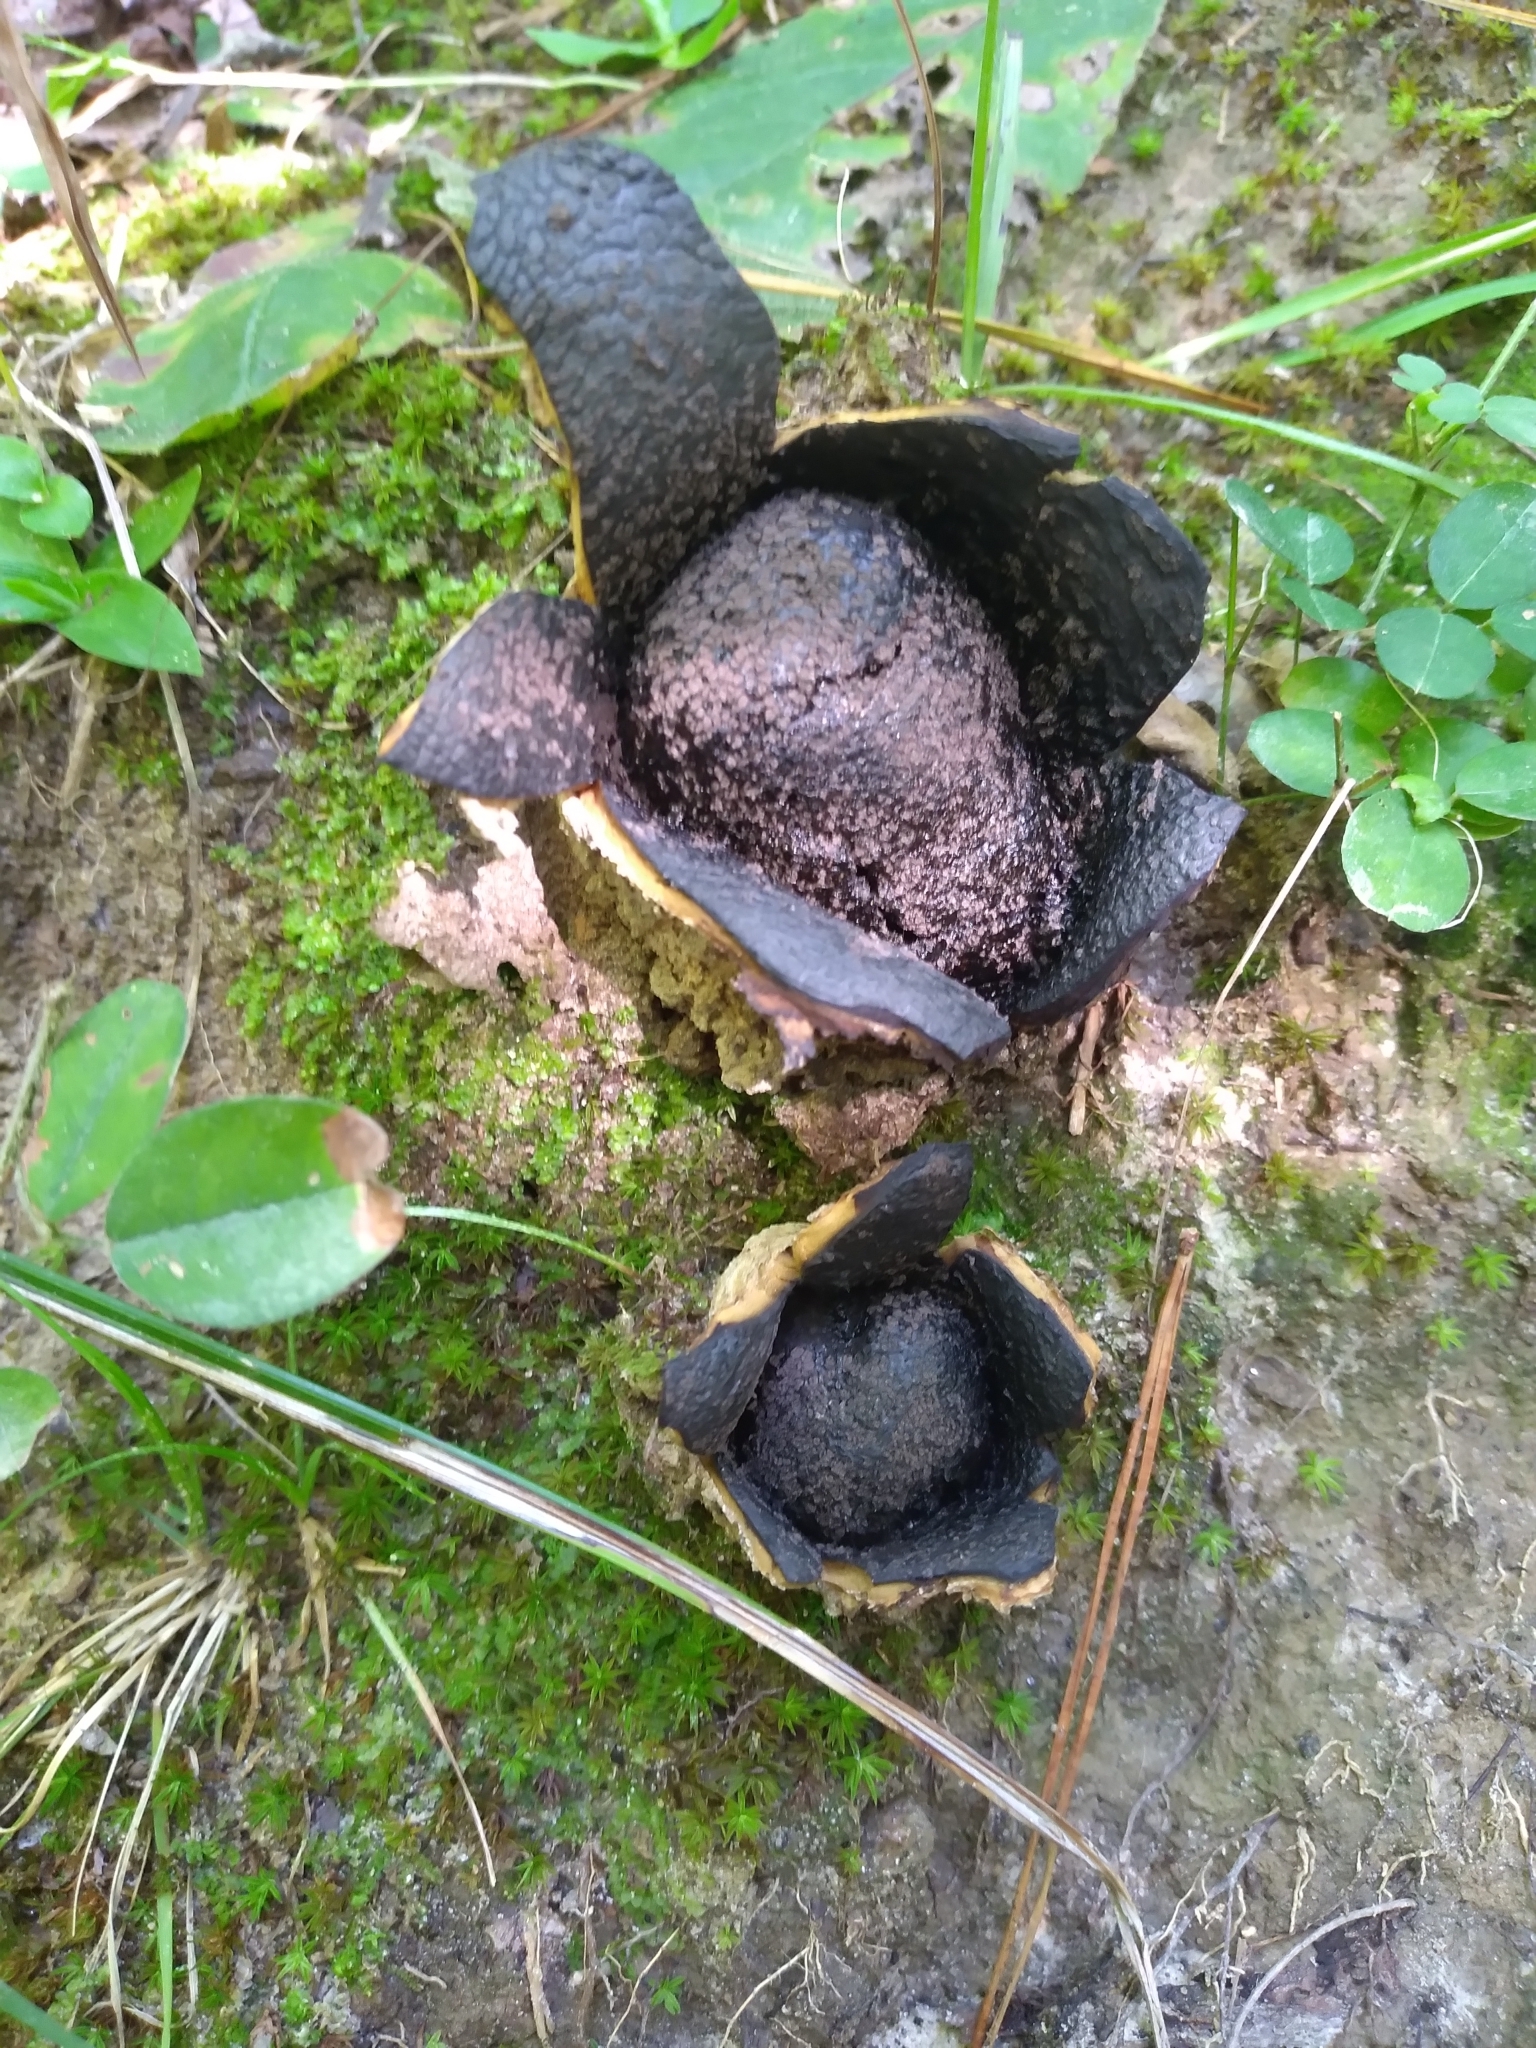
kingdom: Fungi
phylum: Basidiomycota
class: Agaricomycetes
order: Boletales
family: Sclerodermataceae
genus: Scleroderma
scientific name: Scleroderma polyrhizum
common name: Many-rooted earthball
